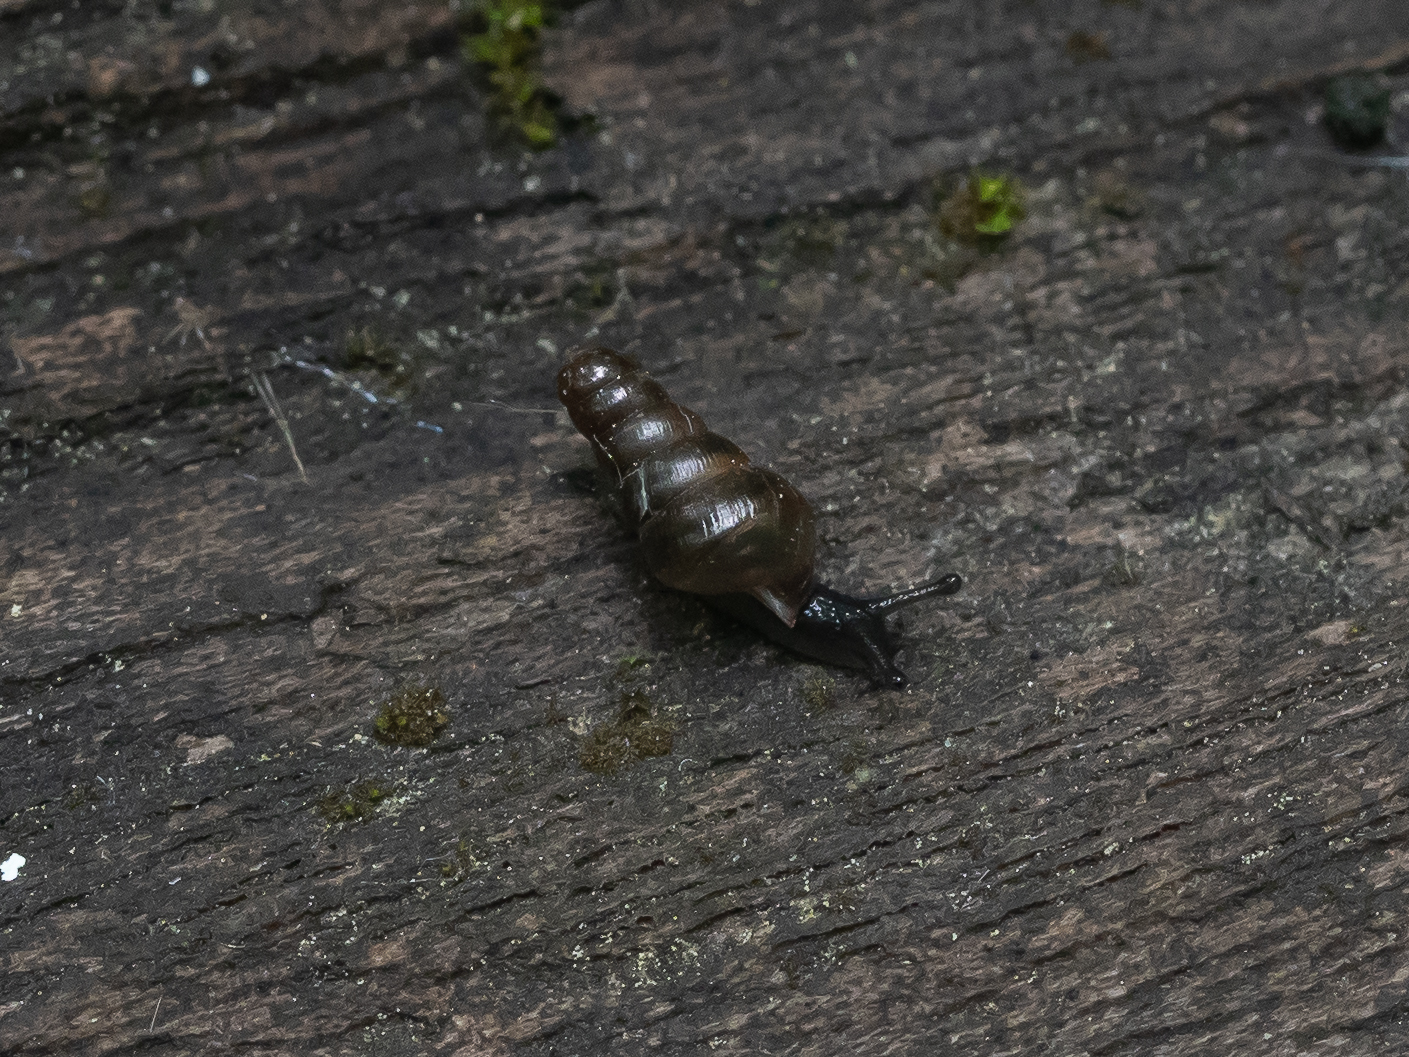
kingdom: Animalia
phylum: Mollusca
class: Gastropoda
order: Stylommatophora
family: Clausiliidae
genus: Cochlodina
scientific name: Cochlodina laminata
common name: Plaited door snail
